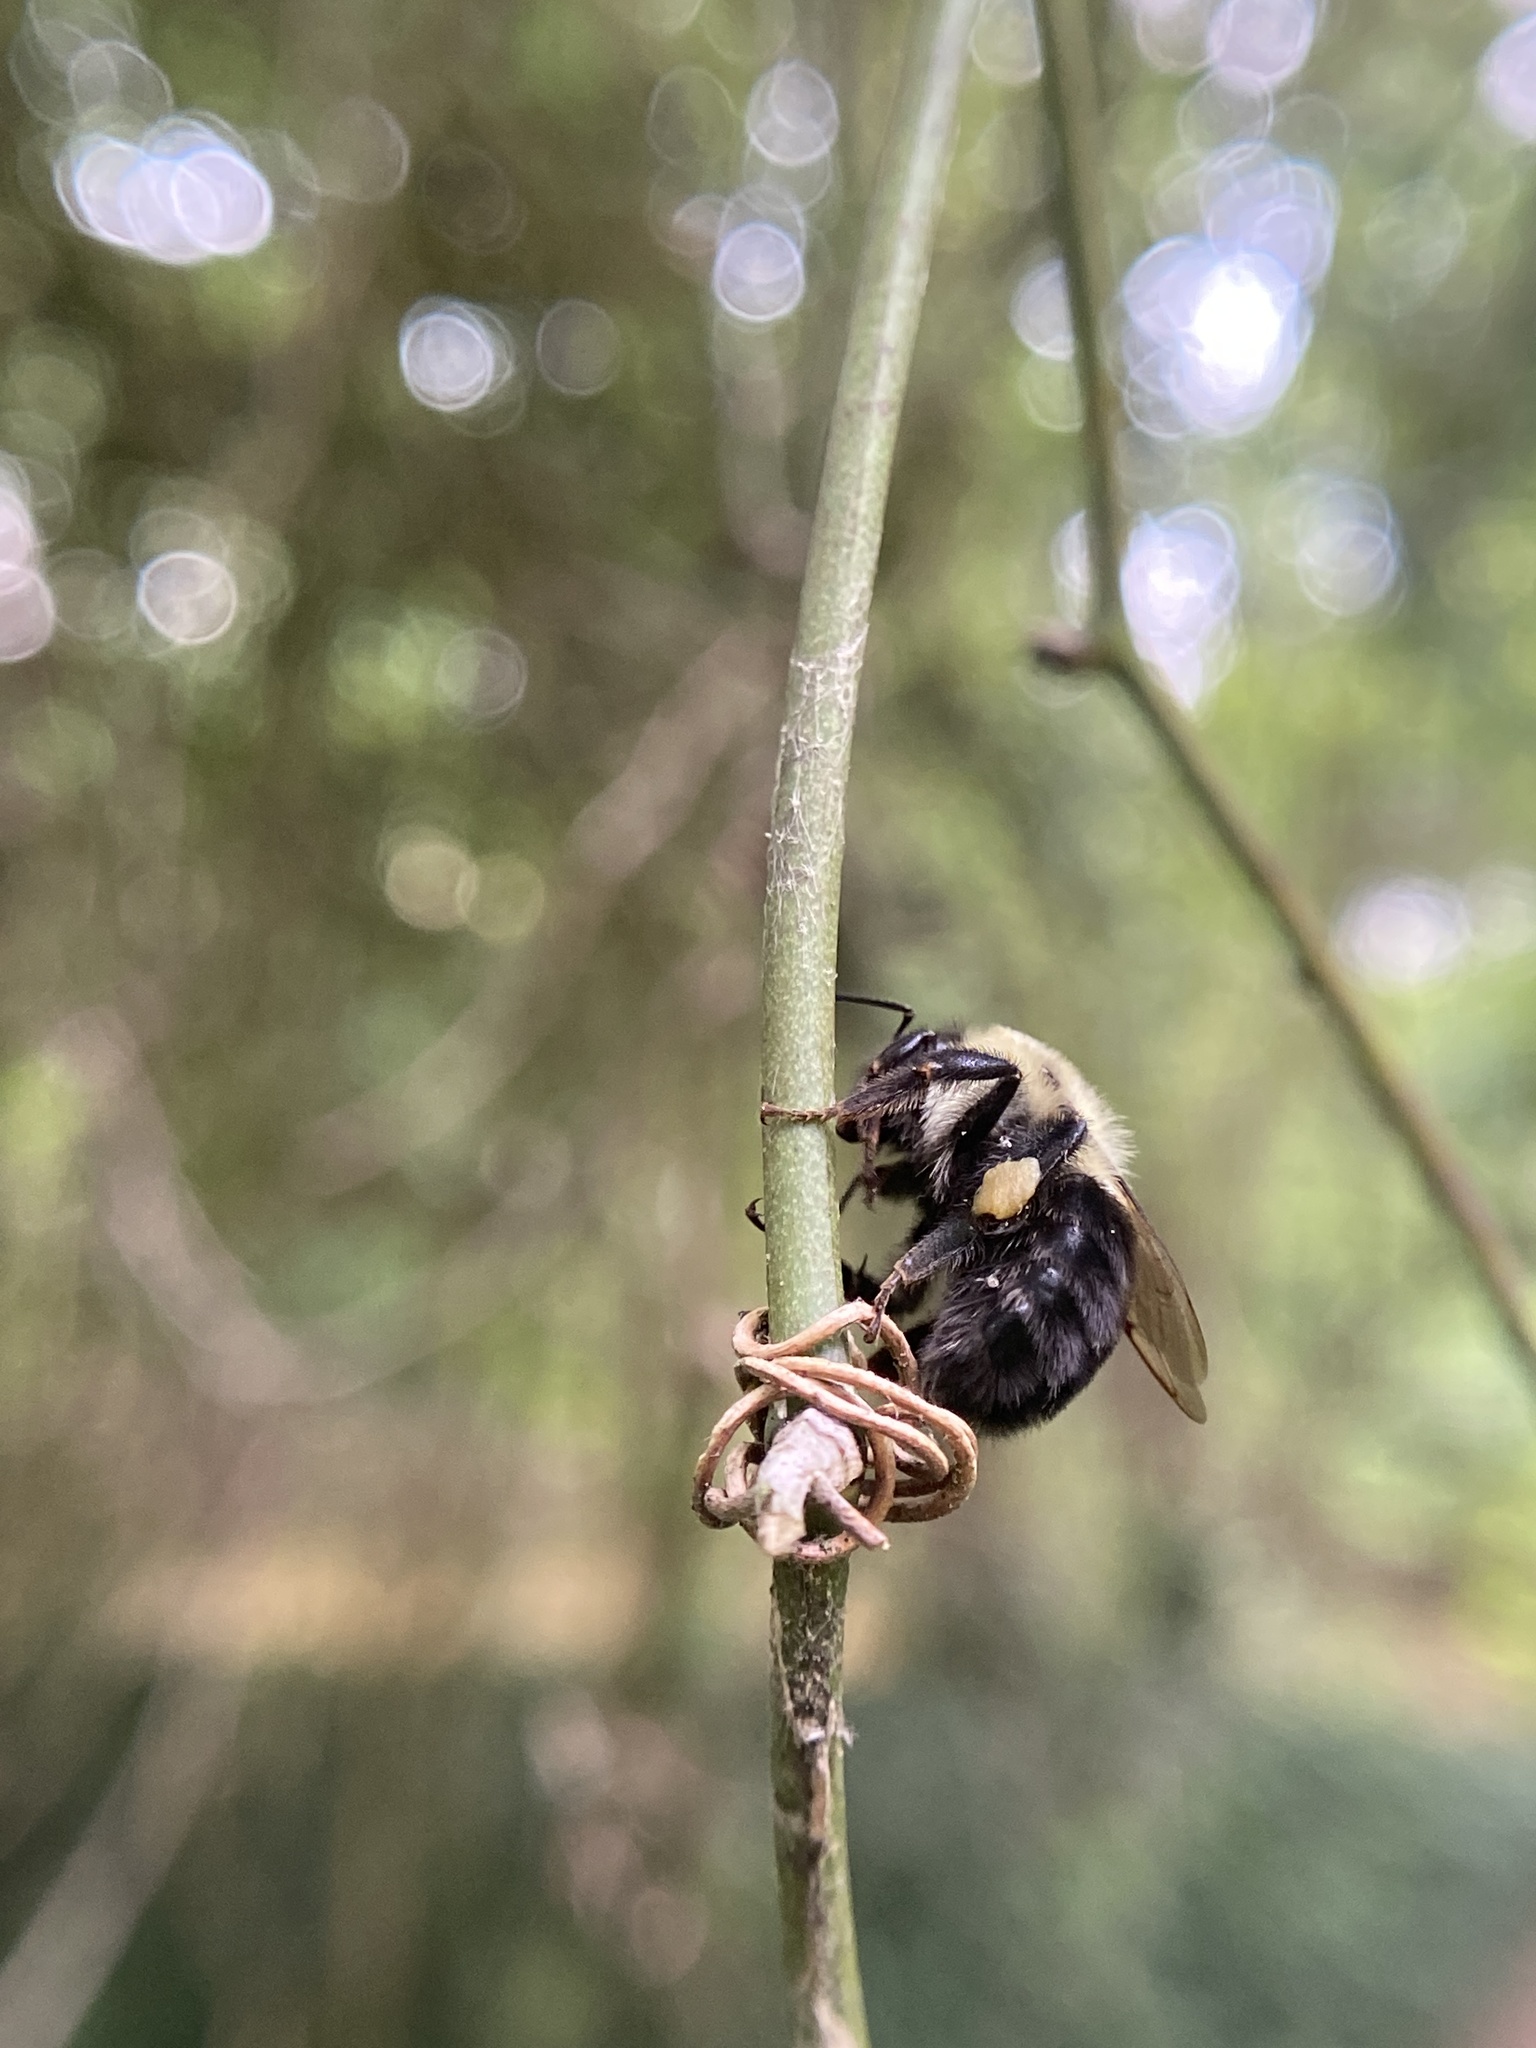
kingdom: Animalia
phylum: Arthropoda
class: Insecta
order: Hymenoptera
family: Apidae
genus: Bombus
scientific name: Bombus impatiens
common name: Common eastern bumble bee
